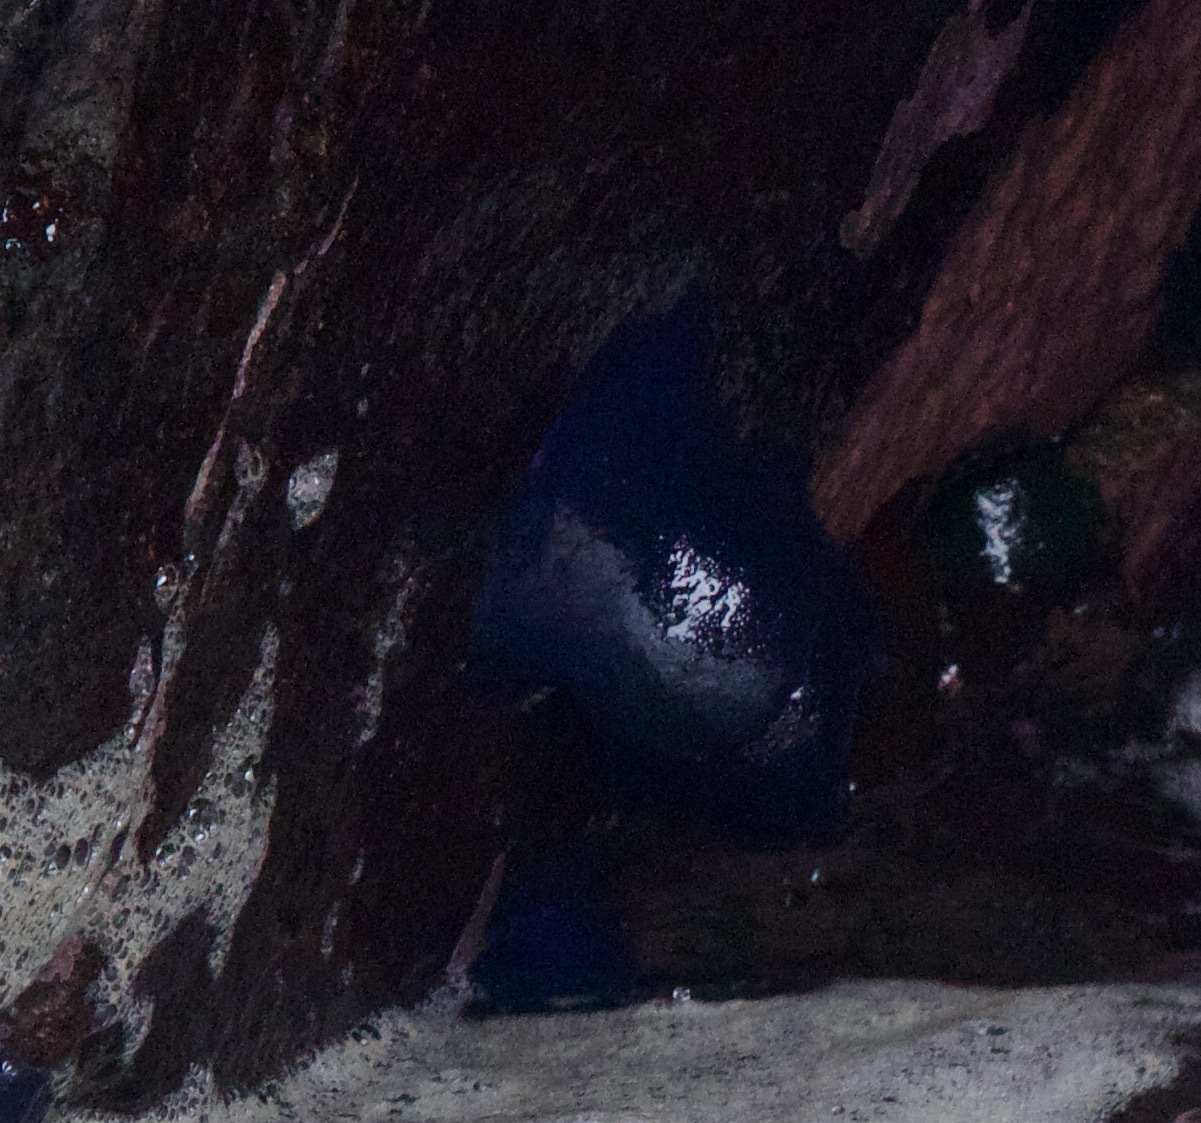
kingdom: Animalia
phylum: Cnidaria
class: Anthozoa
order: Actiniaria
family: Actiniidae
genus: Phymactis
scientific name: Phymactis papillosa
